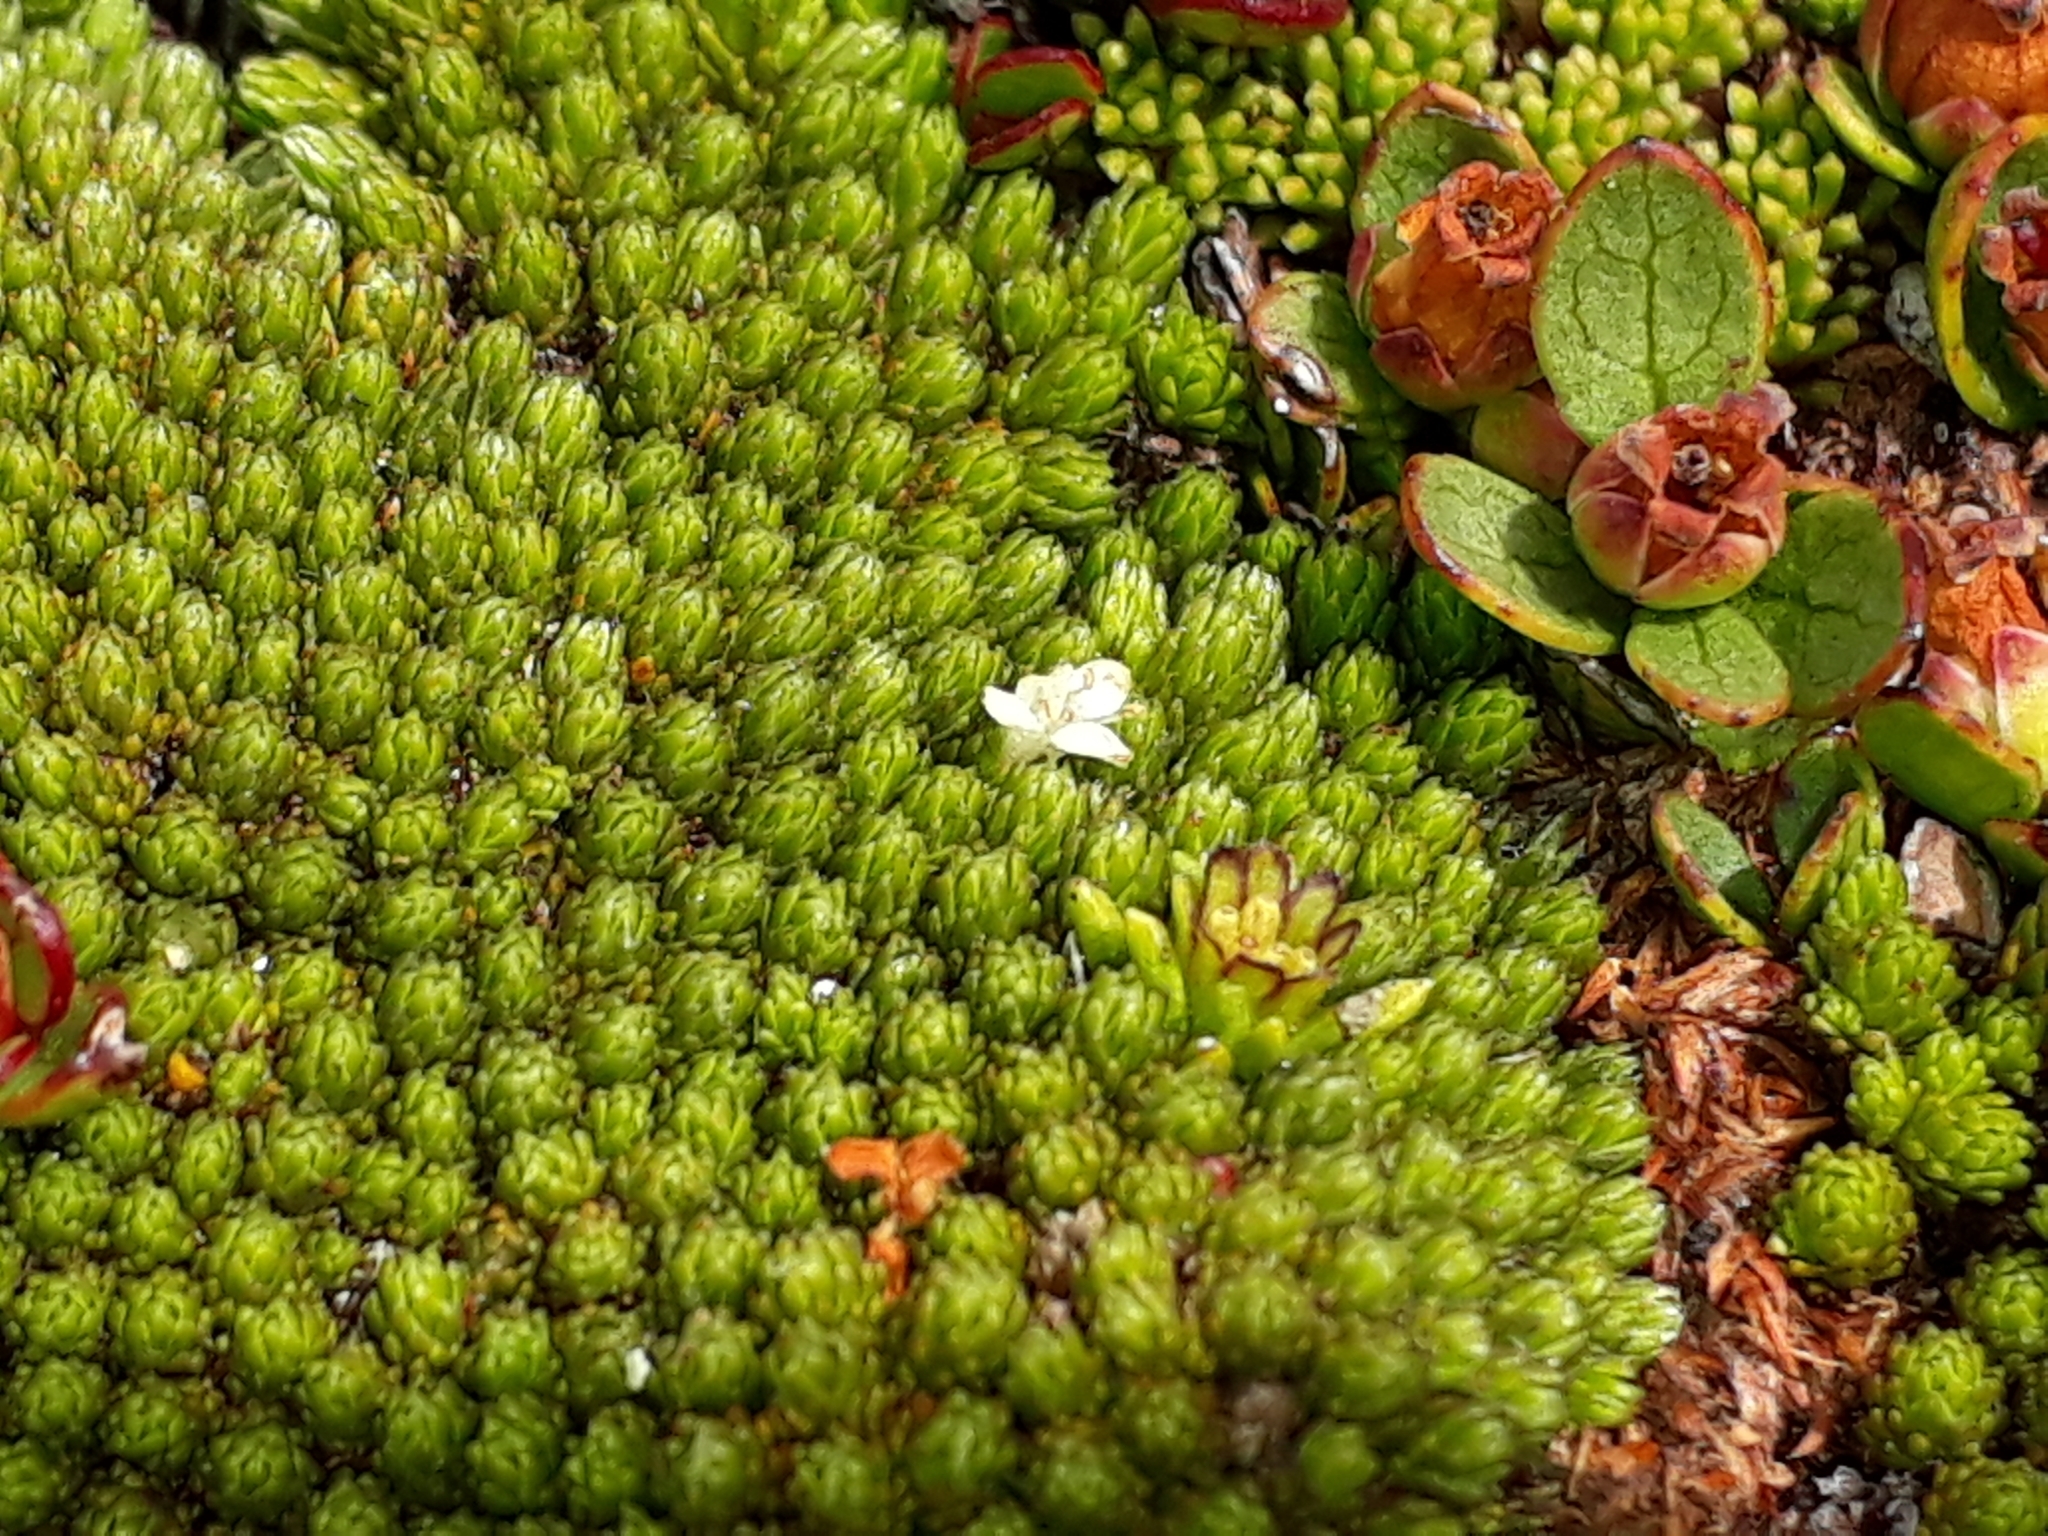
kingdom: Plantae
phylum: Tracheophyta
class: Magnoliopsida
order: Malvales
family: Thymelaeaceae
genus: Kelleria
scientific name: Kelleria childii
